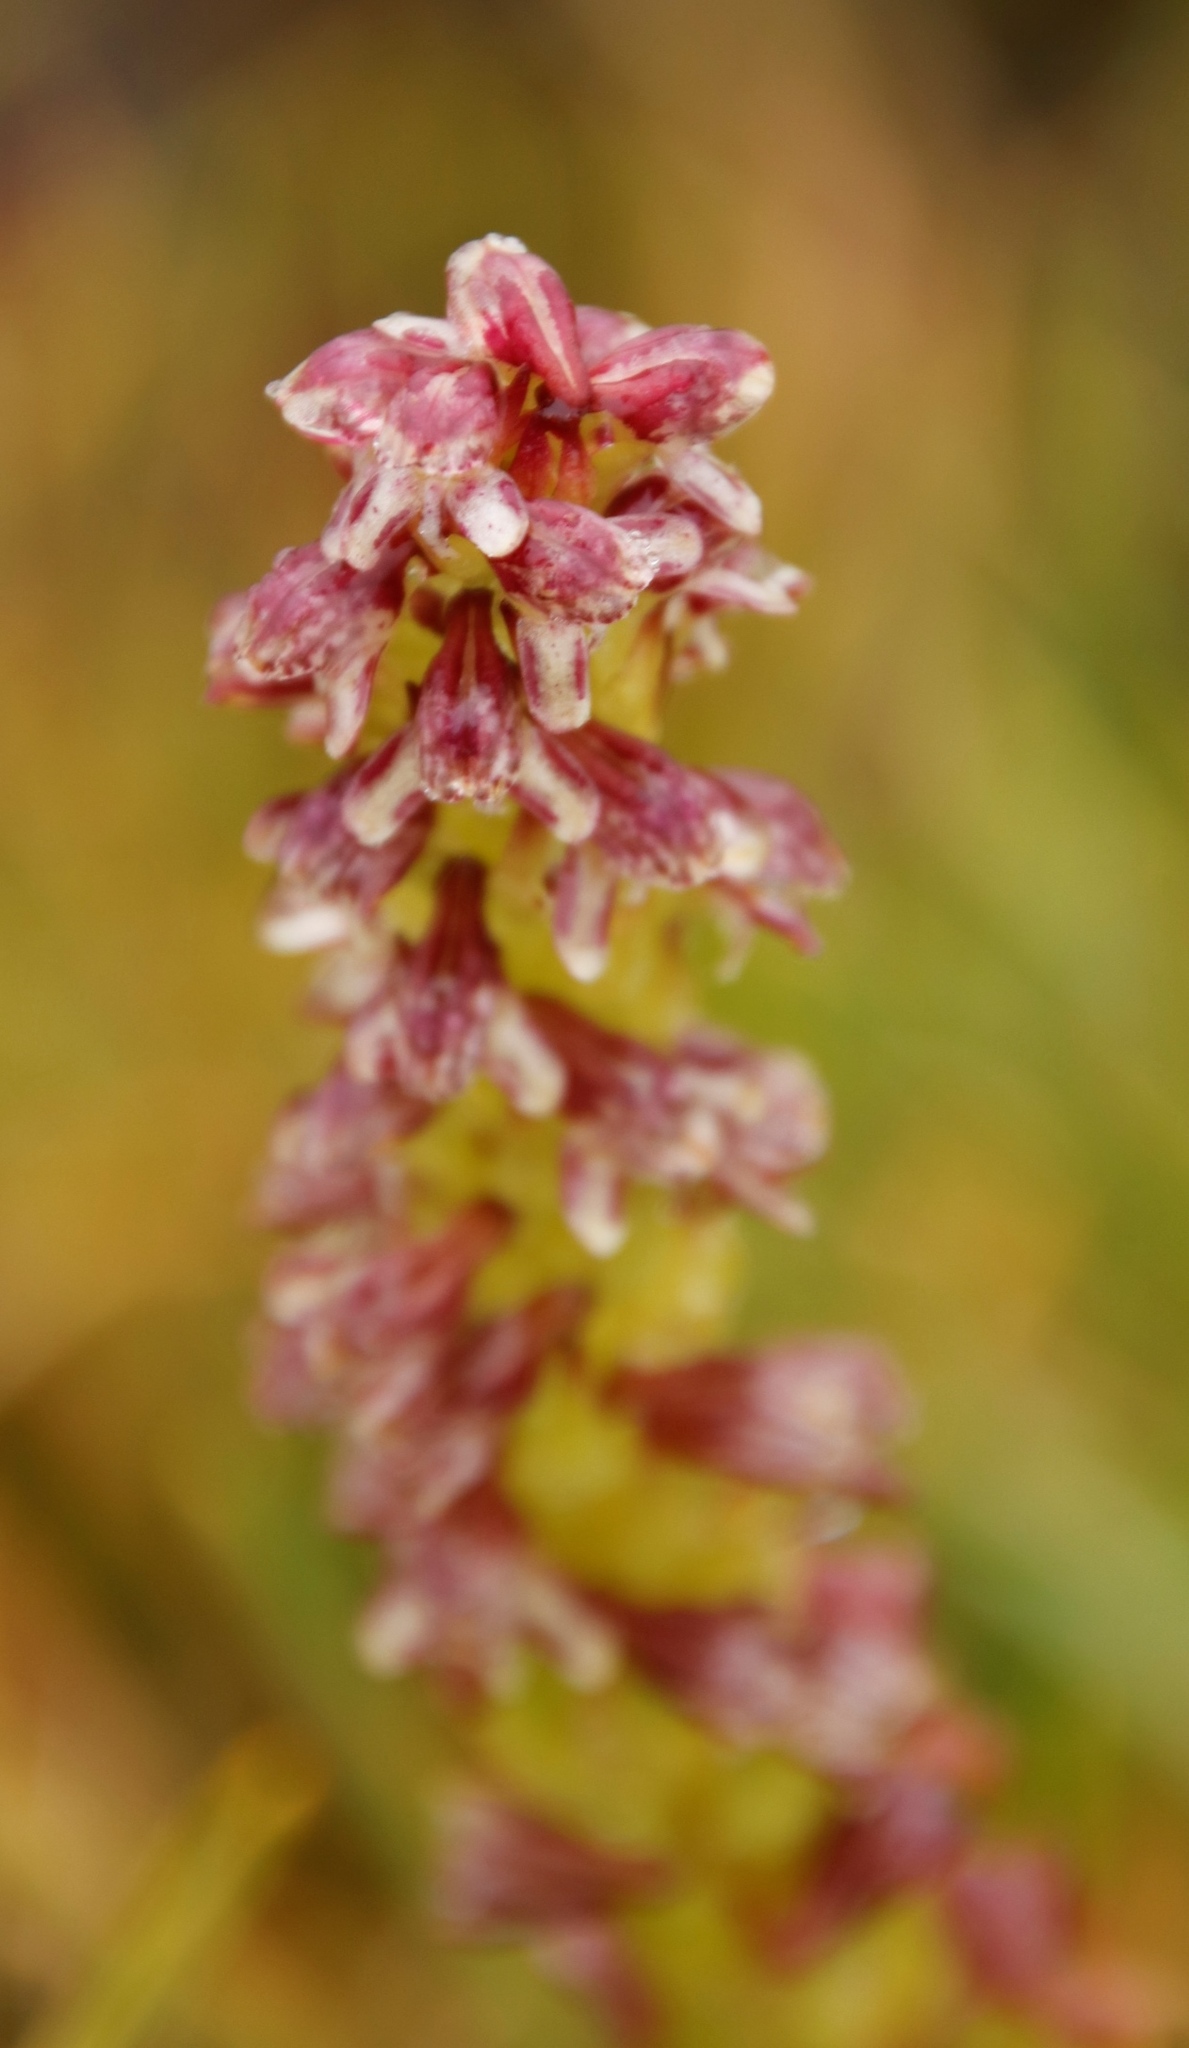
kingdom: Plantae
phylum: Tracheophyta
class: Liliopsida
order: Asparagales
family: Orchidaceae
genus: Disa
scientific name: Disa obtusa
